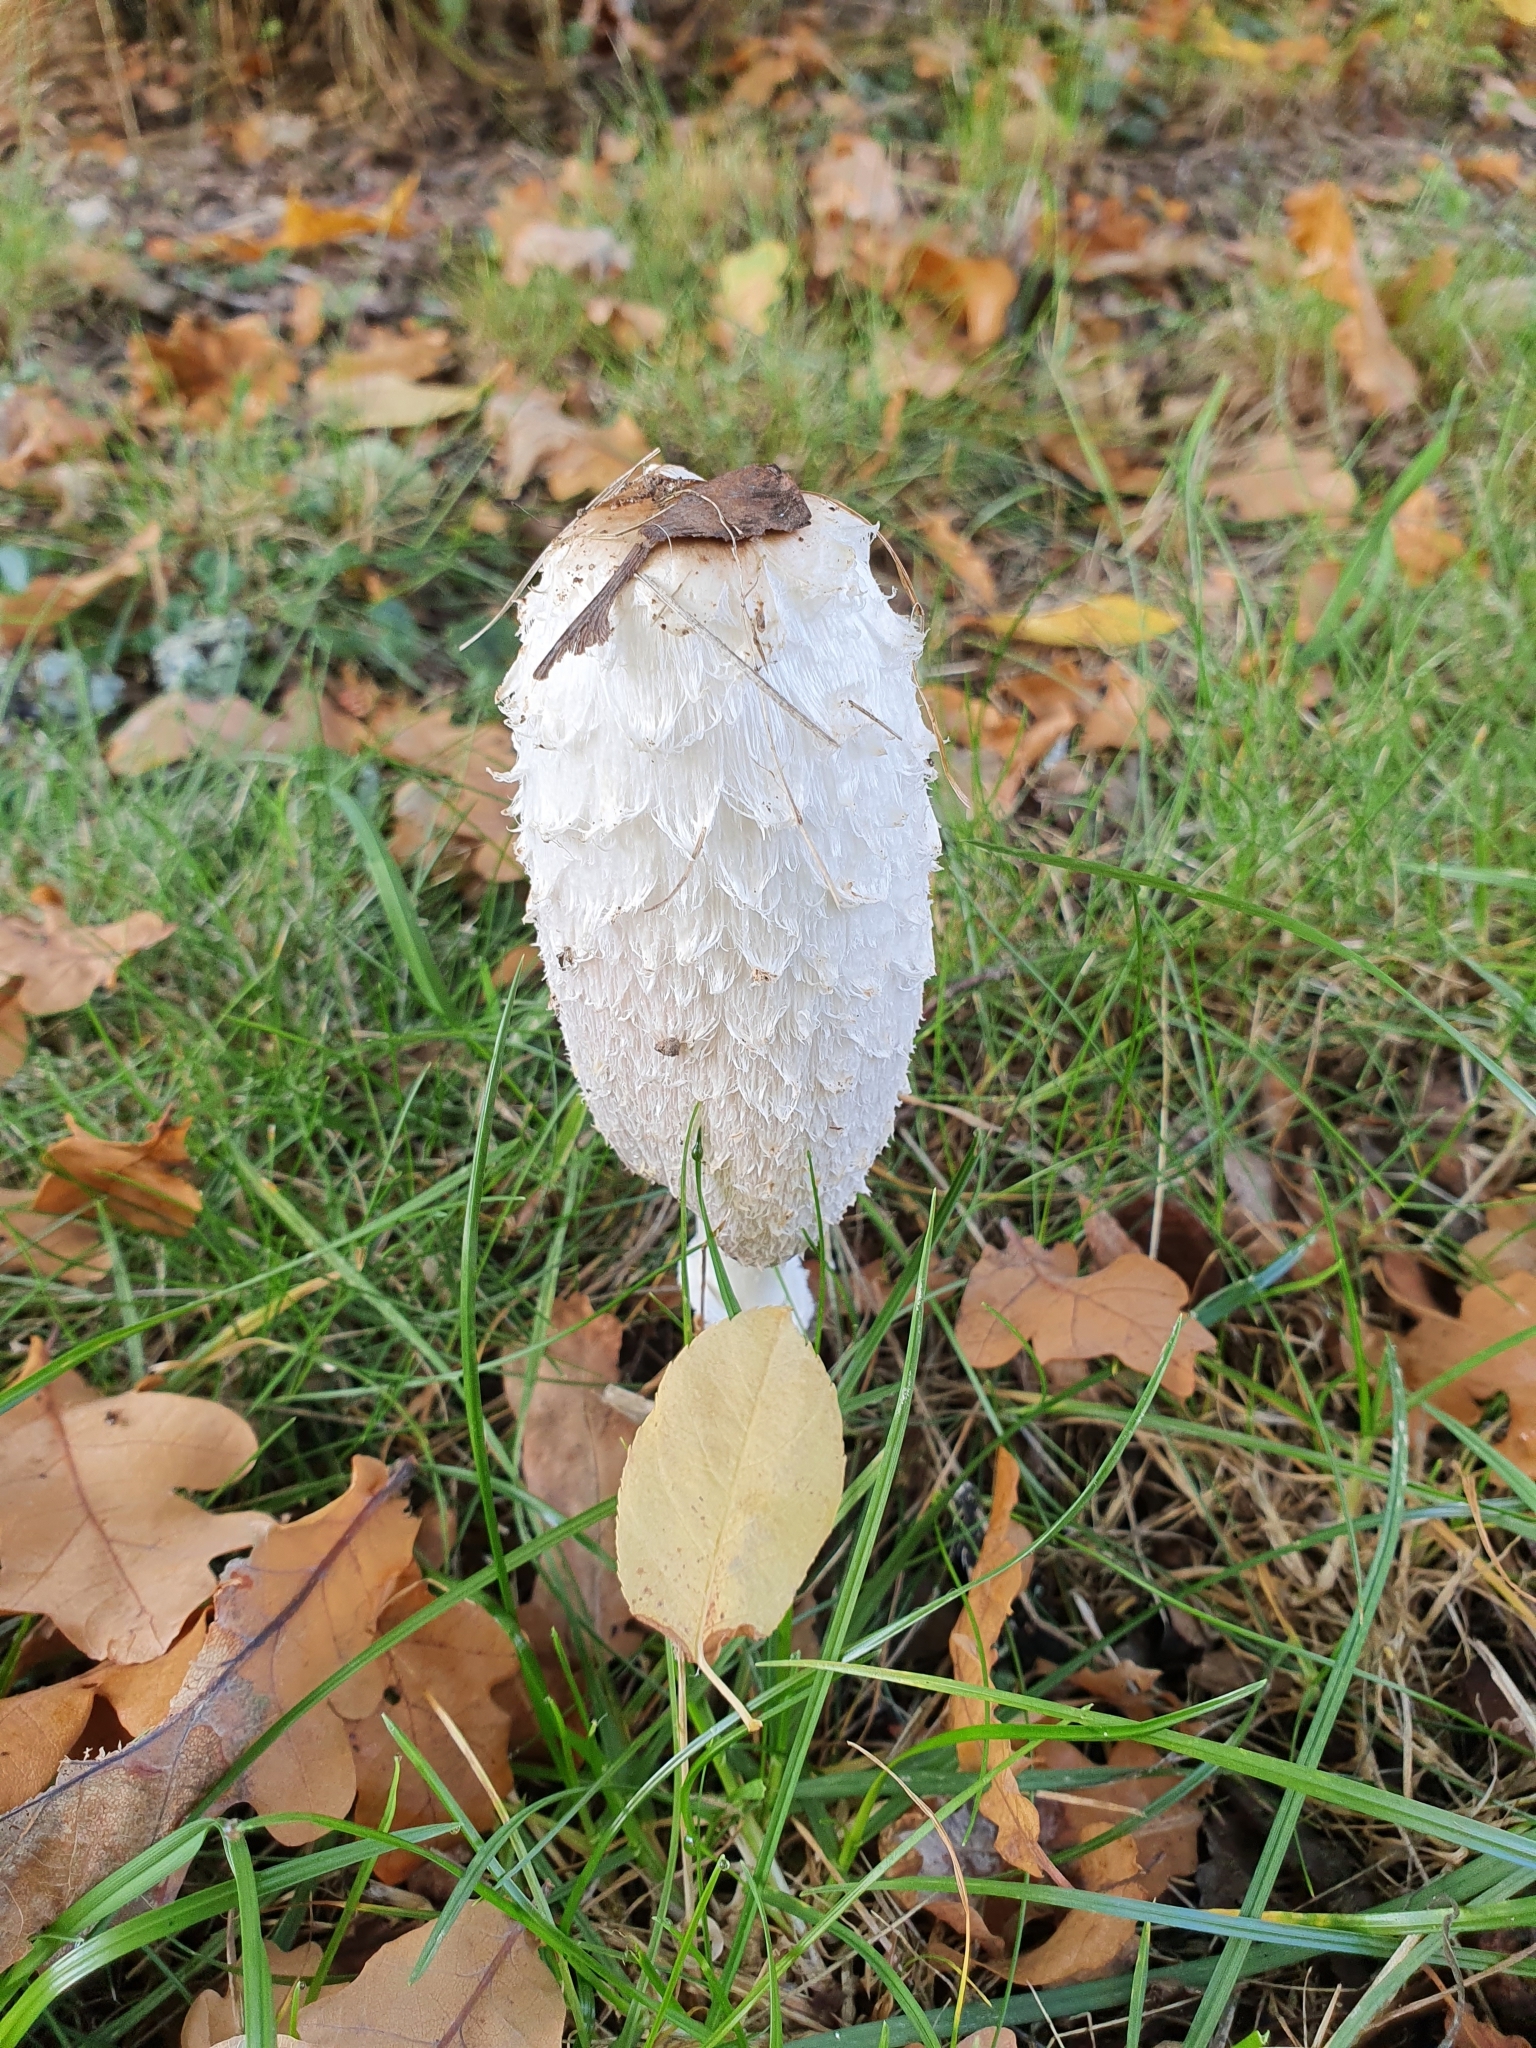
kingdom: Fungi
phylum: Basidiomycota
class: Agaricomycetes
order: Agaricales
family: Agaricaceae
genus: Coprinus
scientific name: Coprinus comatus
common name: Lawyer's wig
